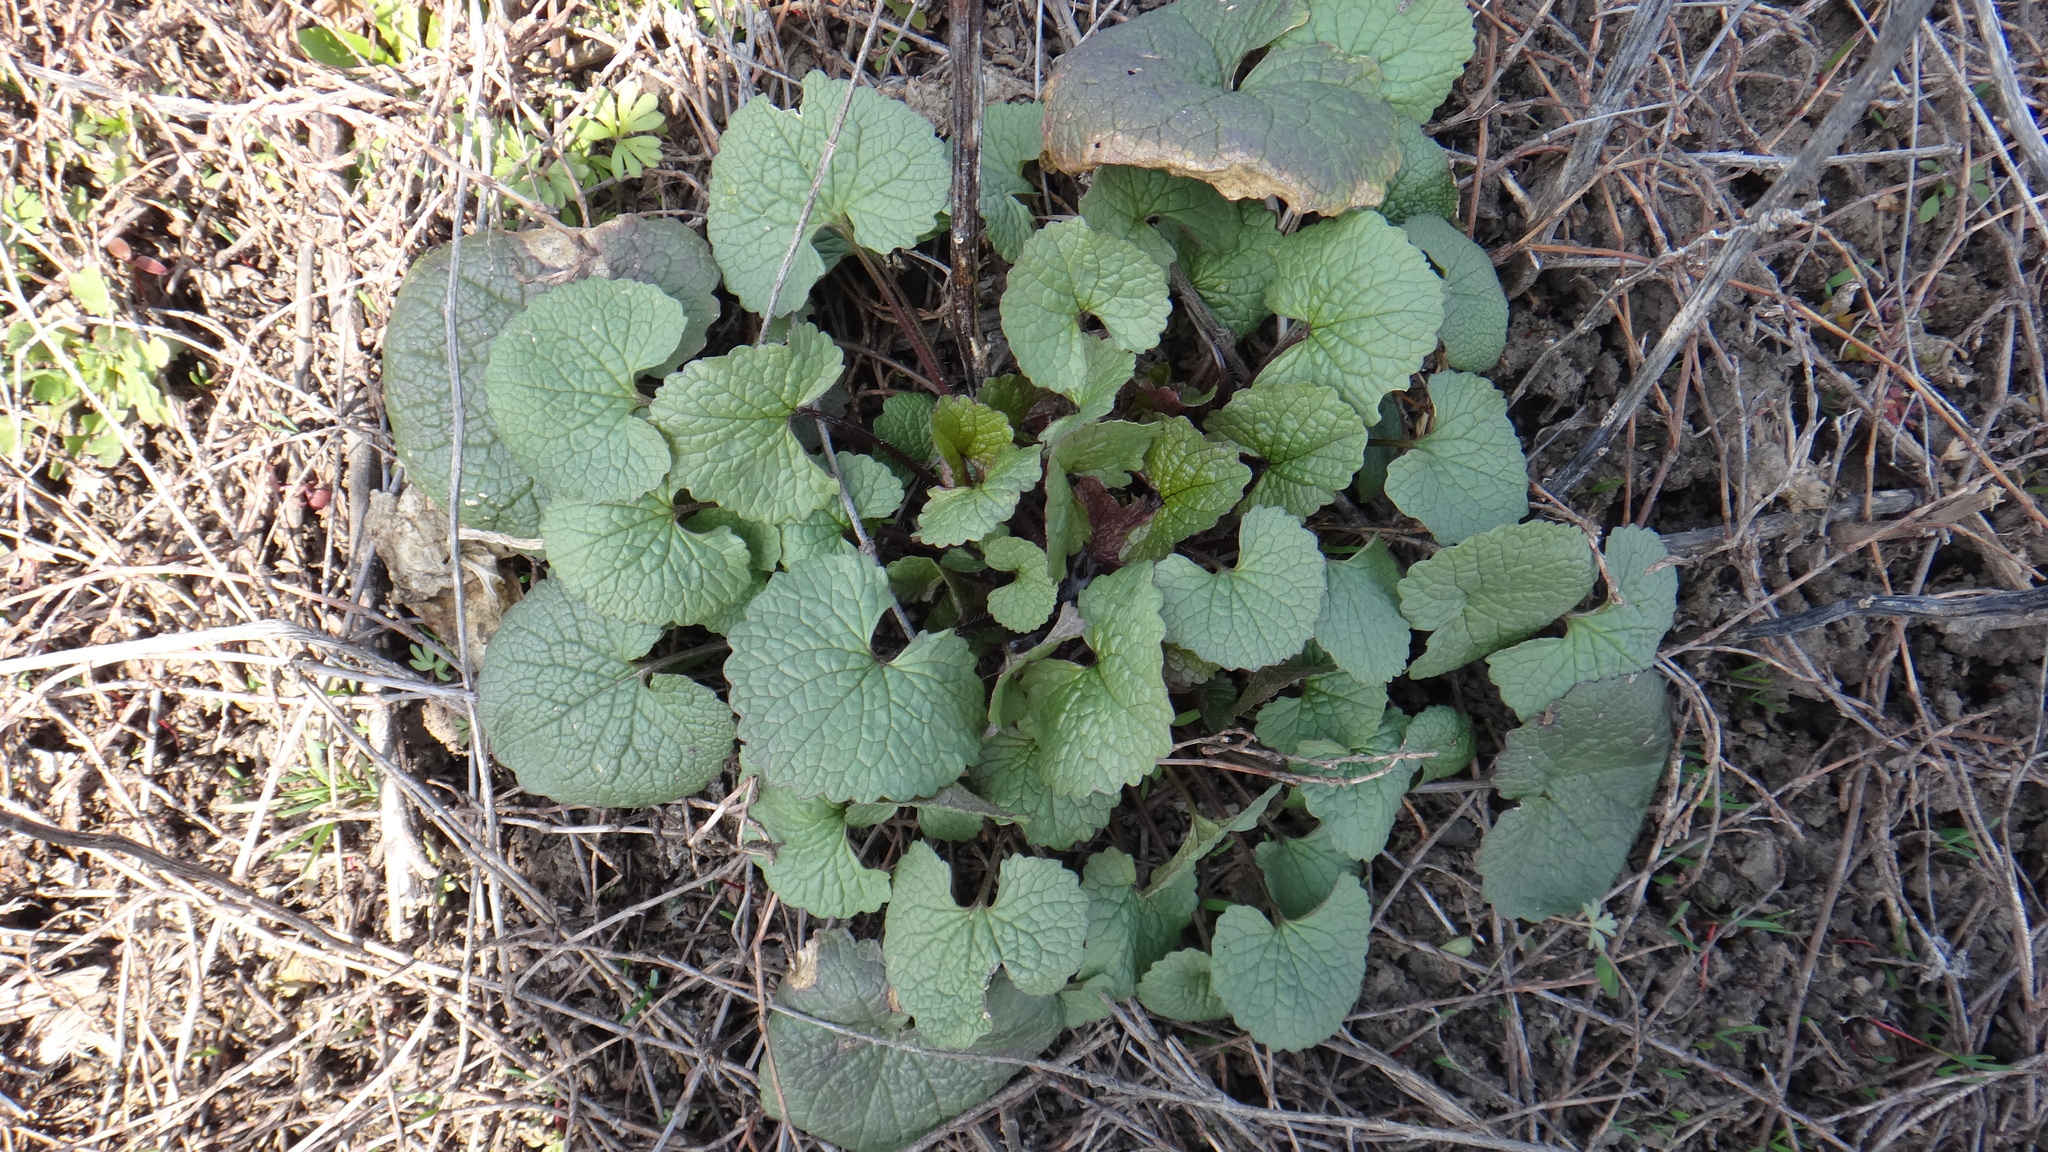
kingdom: Plantae
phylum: Tracheophyta
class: Magnoliopsida
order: Brassicales
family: Brassicaceae
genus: Alliaria
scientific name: Alliaria petiolata
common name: Garlic mustard
